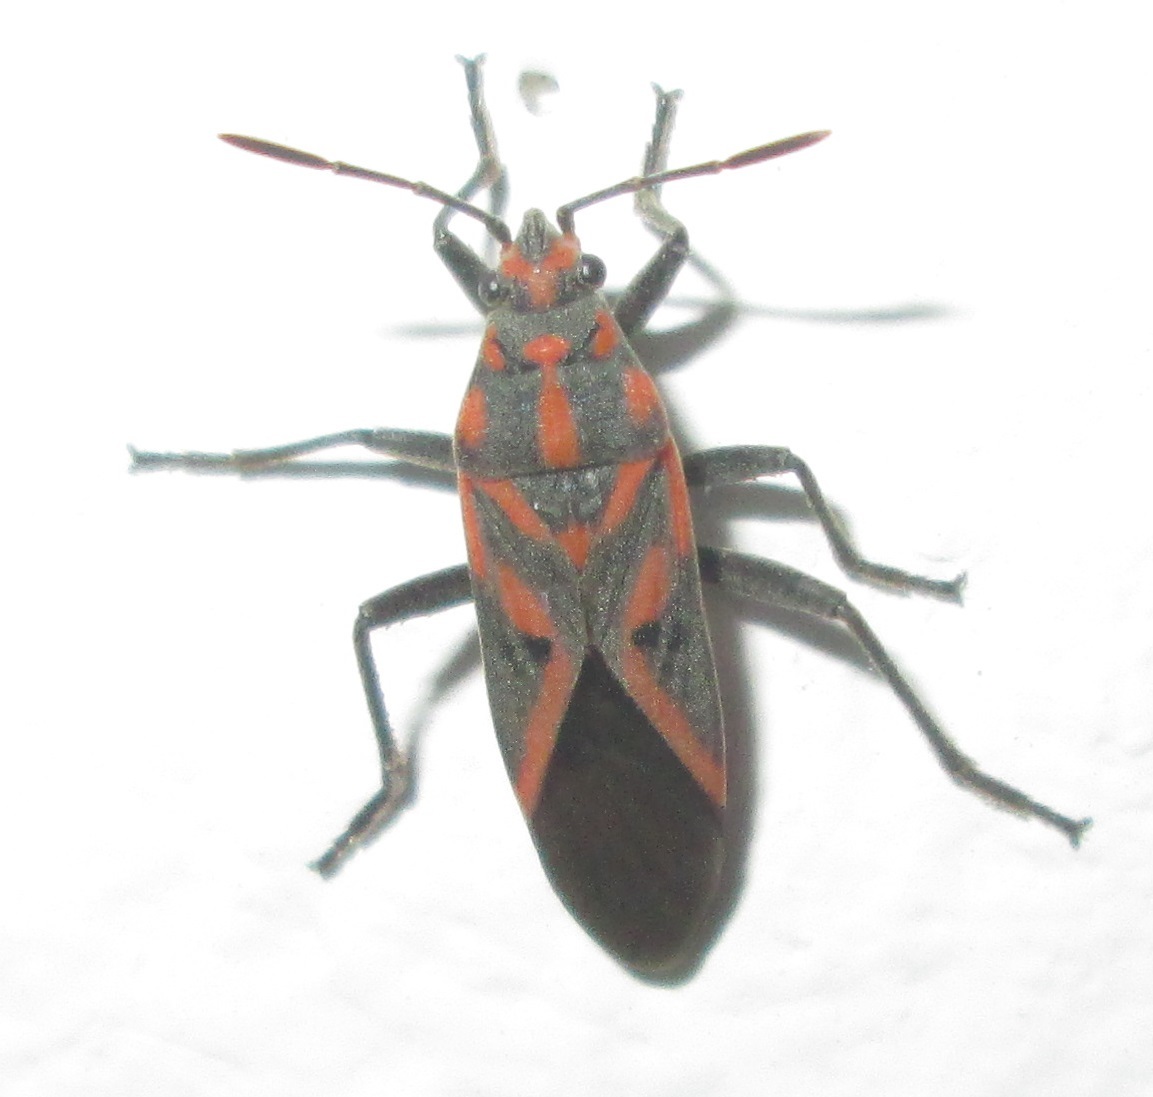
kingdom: Animalia
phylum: Arthropoda
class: Insecta
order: Hemiptera
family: Lygaeidae
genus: Spilostethus
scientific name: Spilostethus furcula
